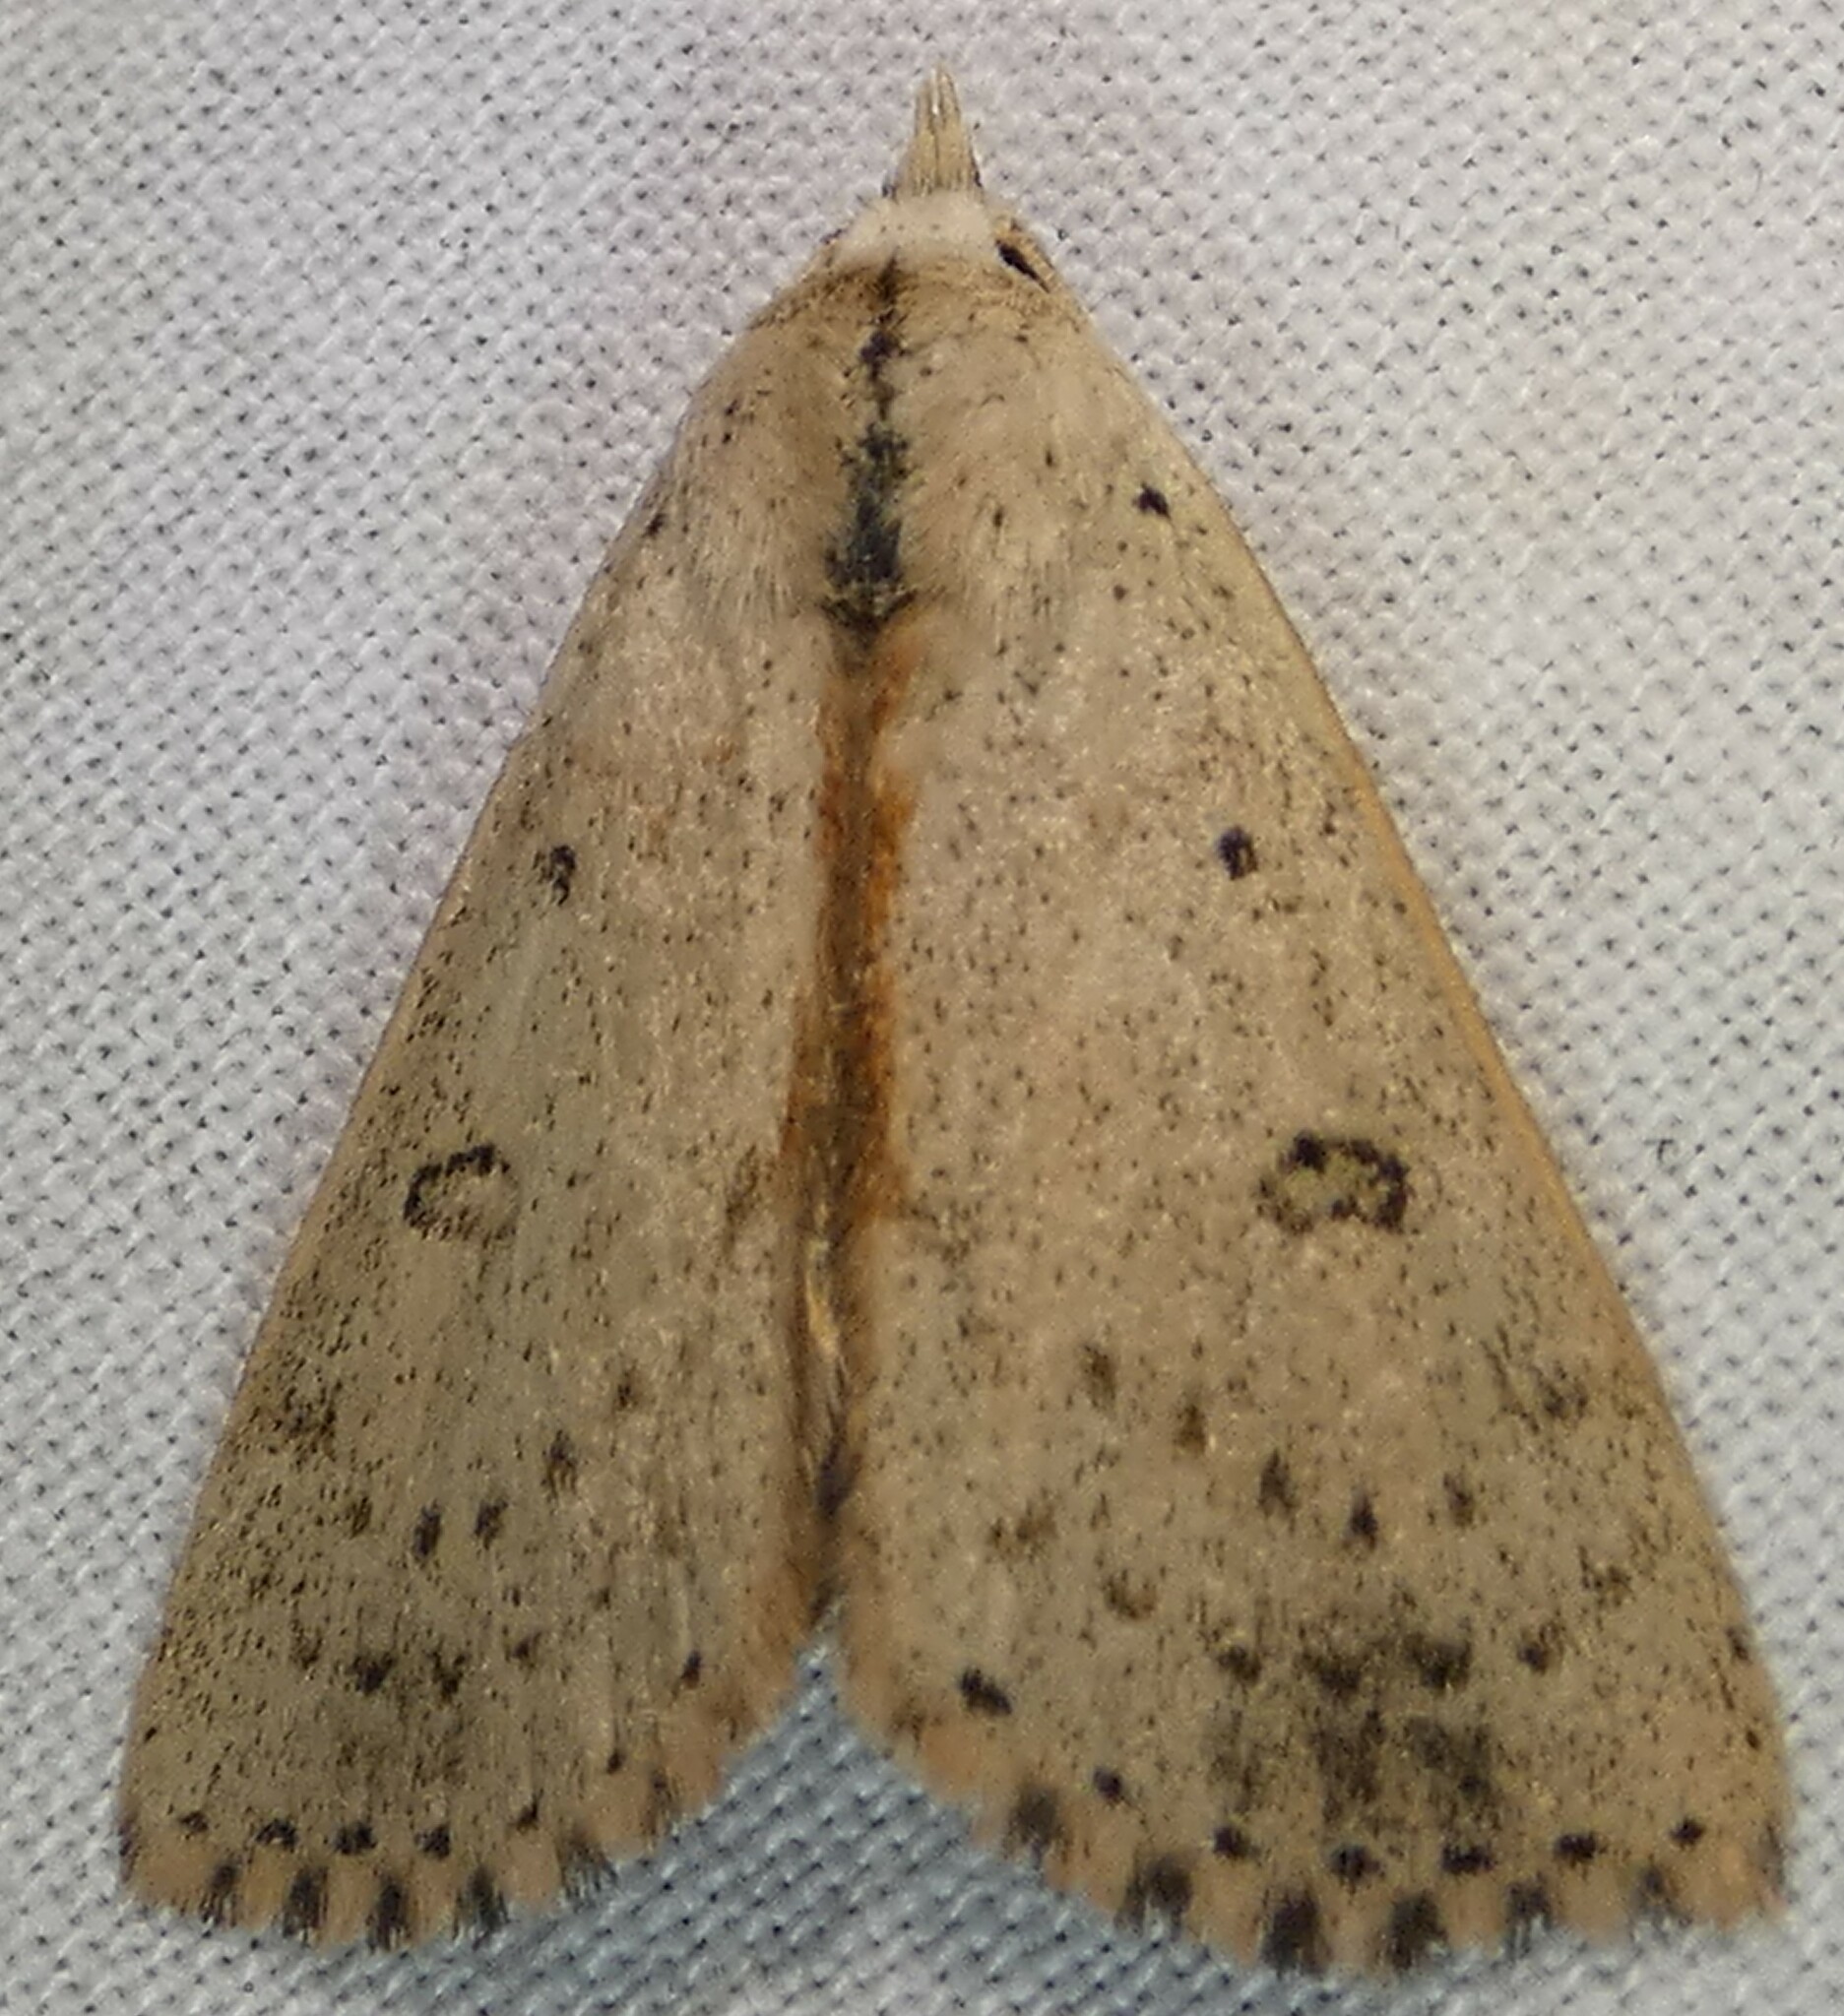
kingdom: Animalia
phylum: Arthropoda
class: Insecta
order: Lepidoptera
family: Erebidae
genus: Scolecocampa
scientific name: Scolecocampa liburna
